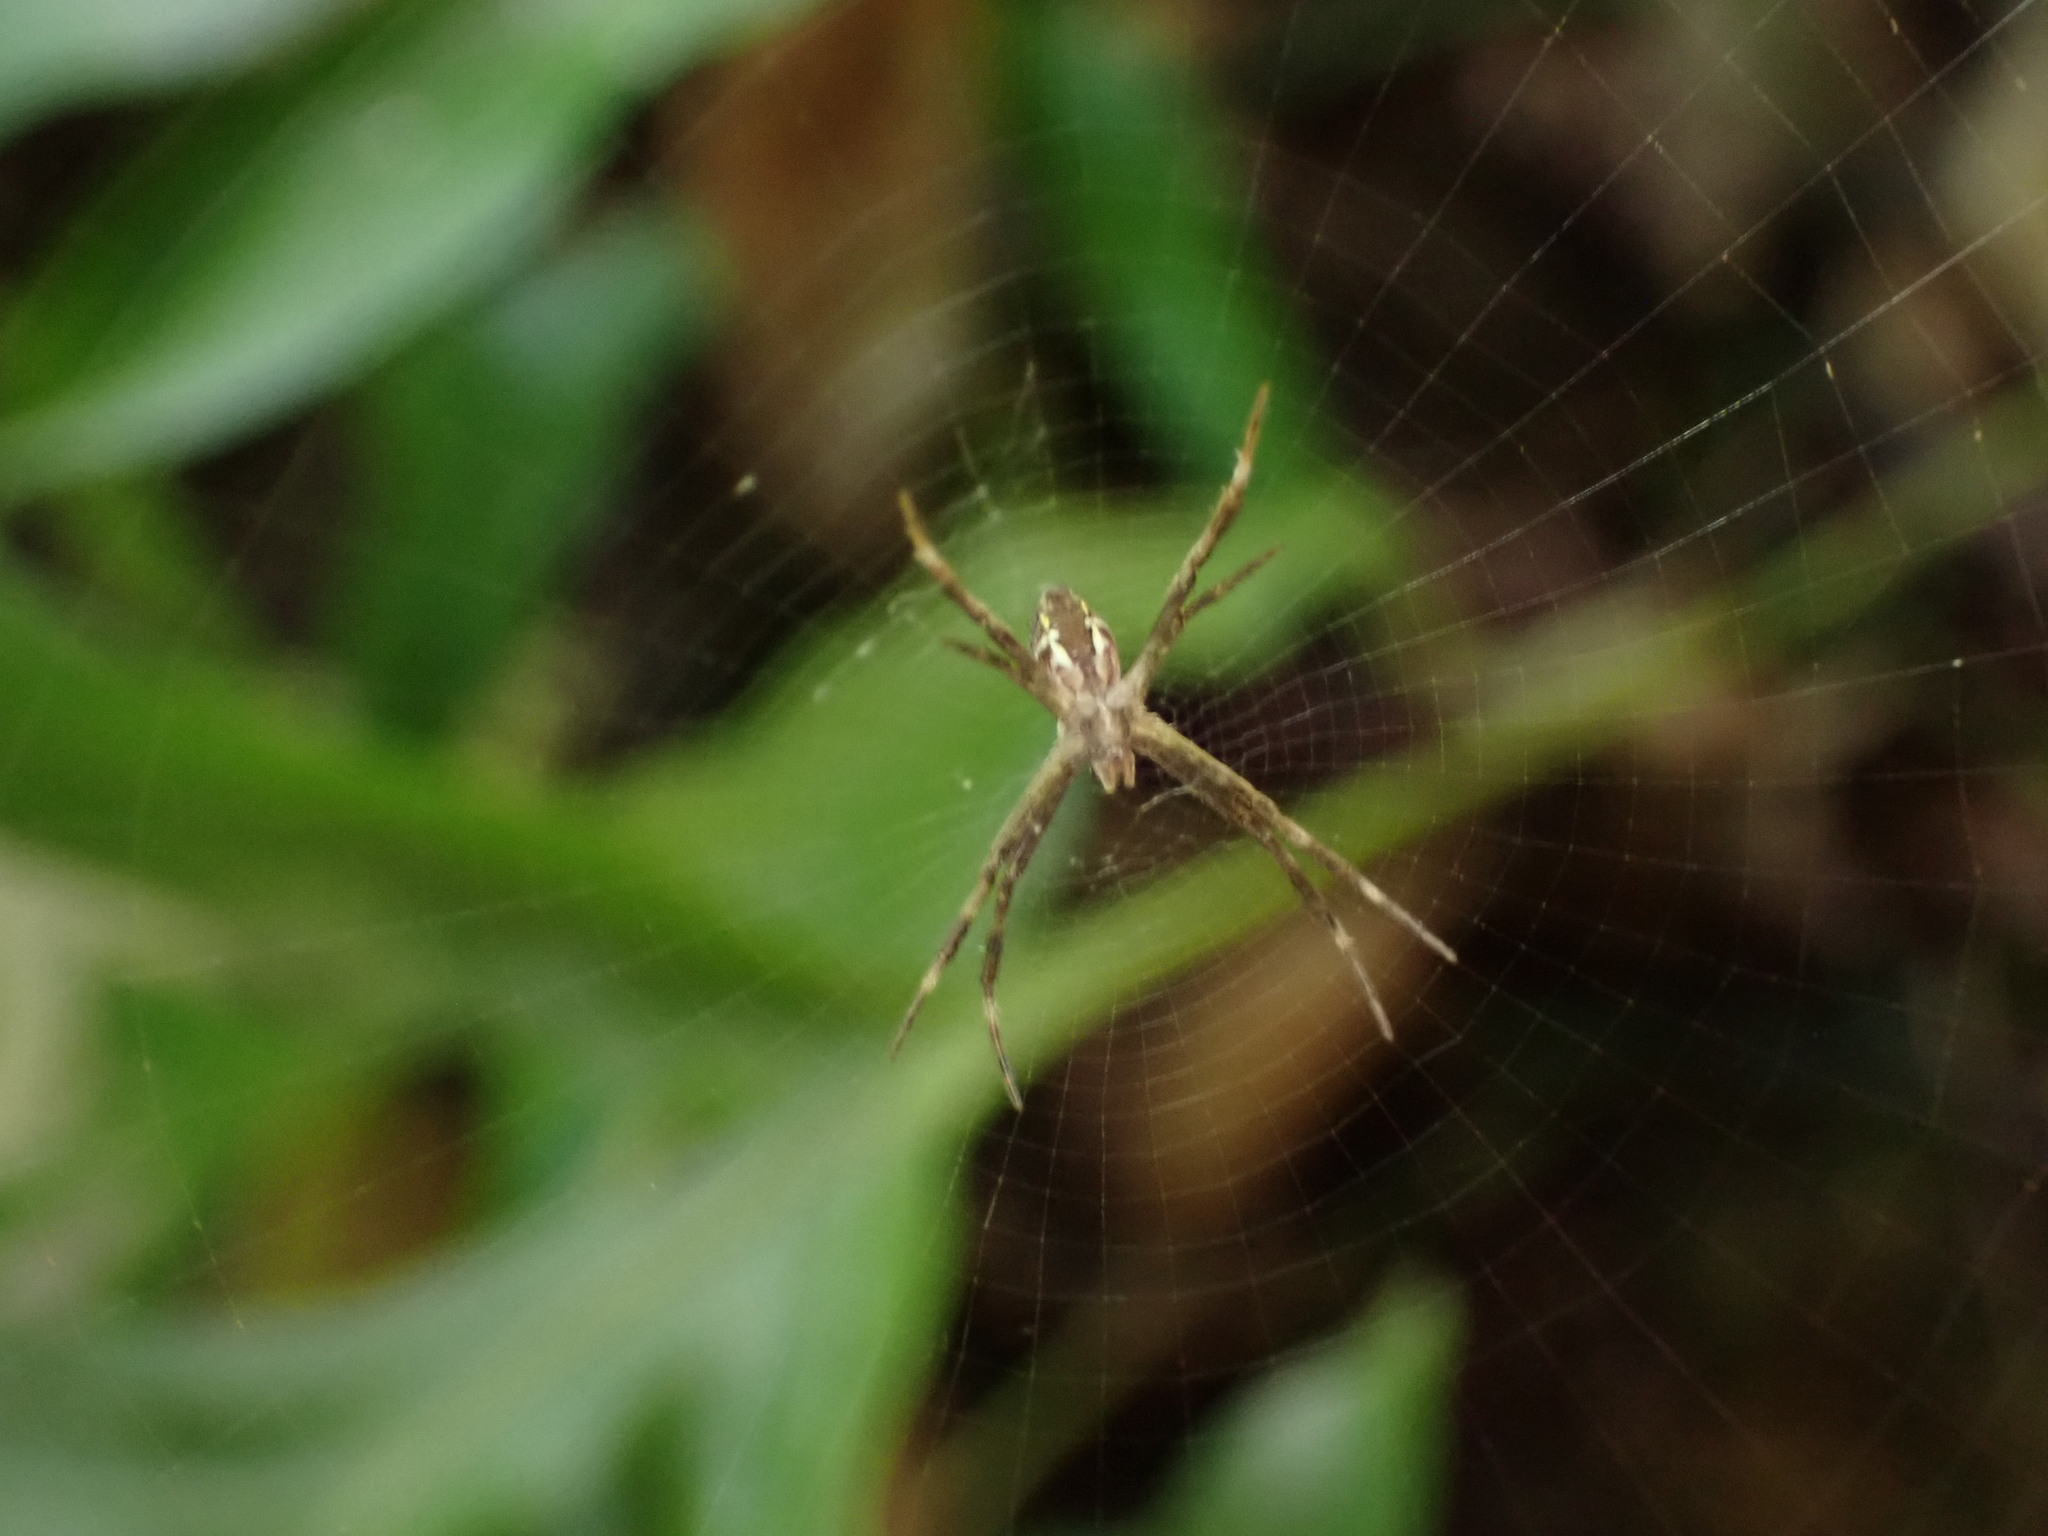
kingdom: Animalia
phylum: Arthropoda
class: Arachnida
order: Araneae
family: Araneidae
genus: Argiope
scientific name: Argiope appensa
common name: Garden spider
